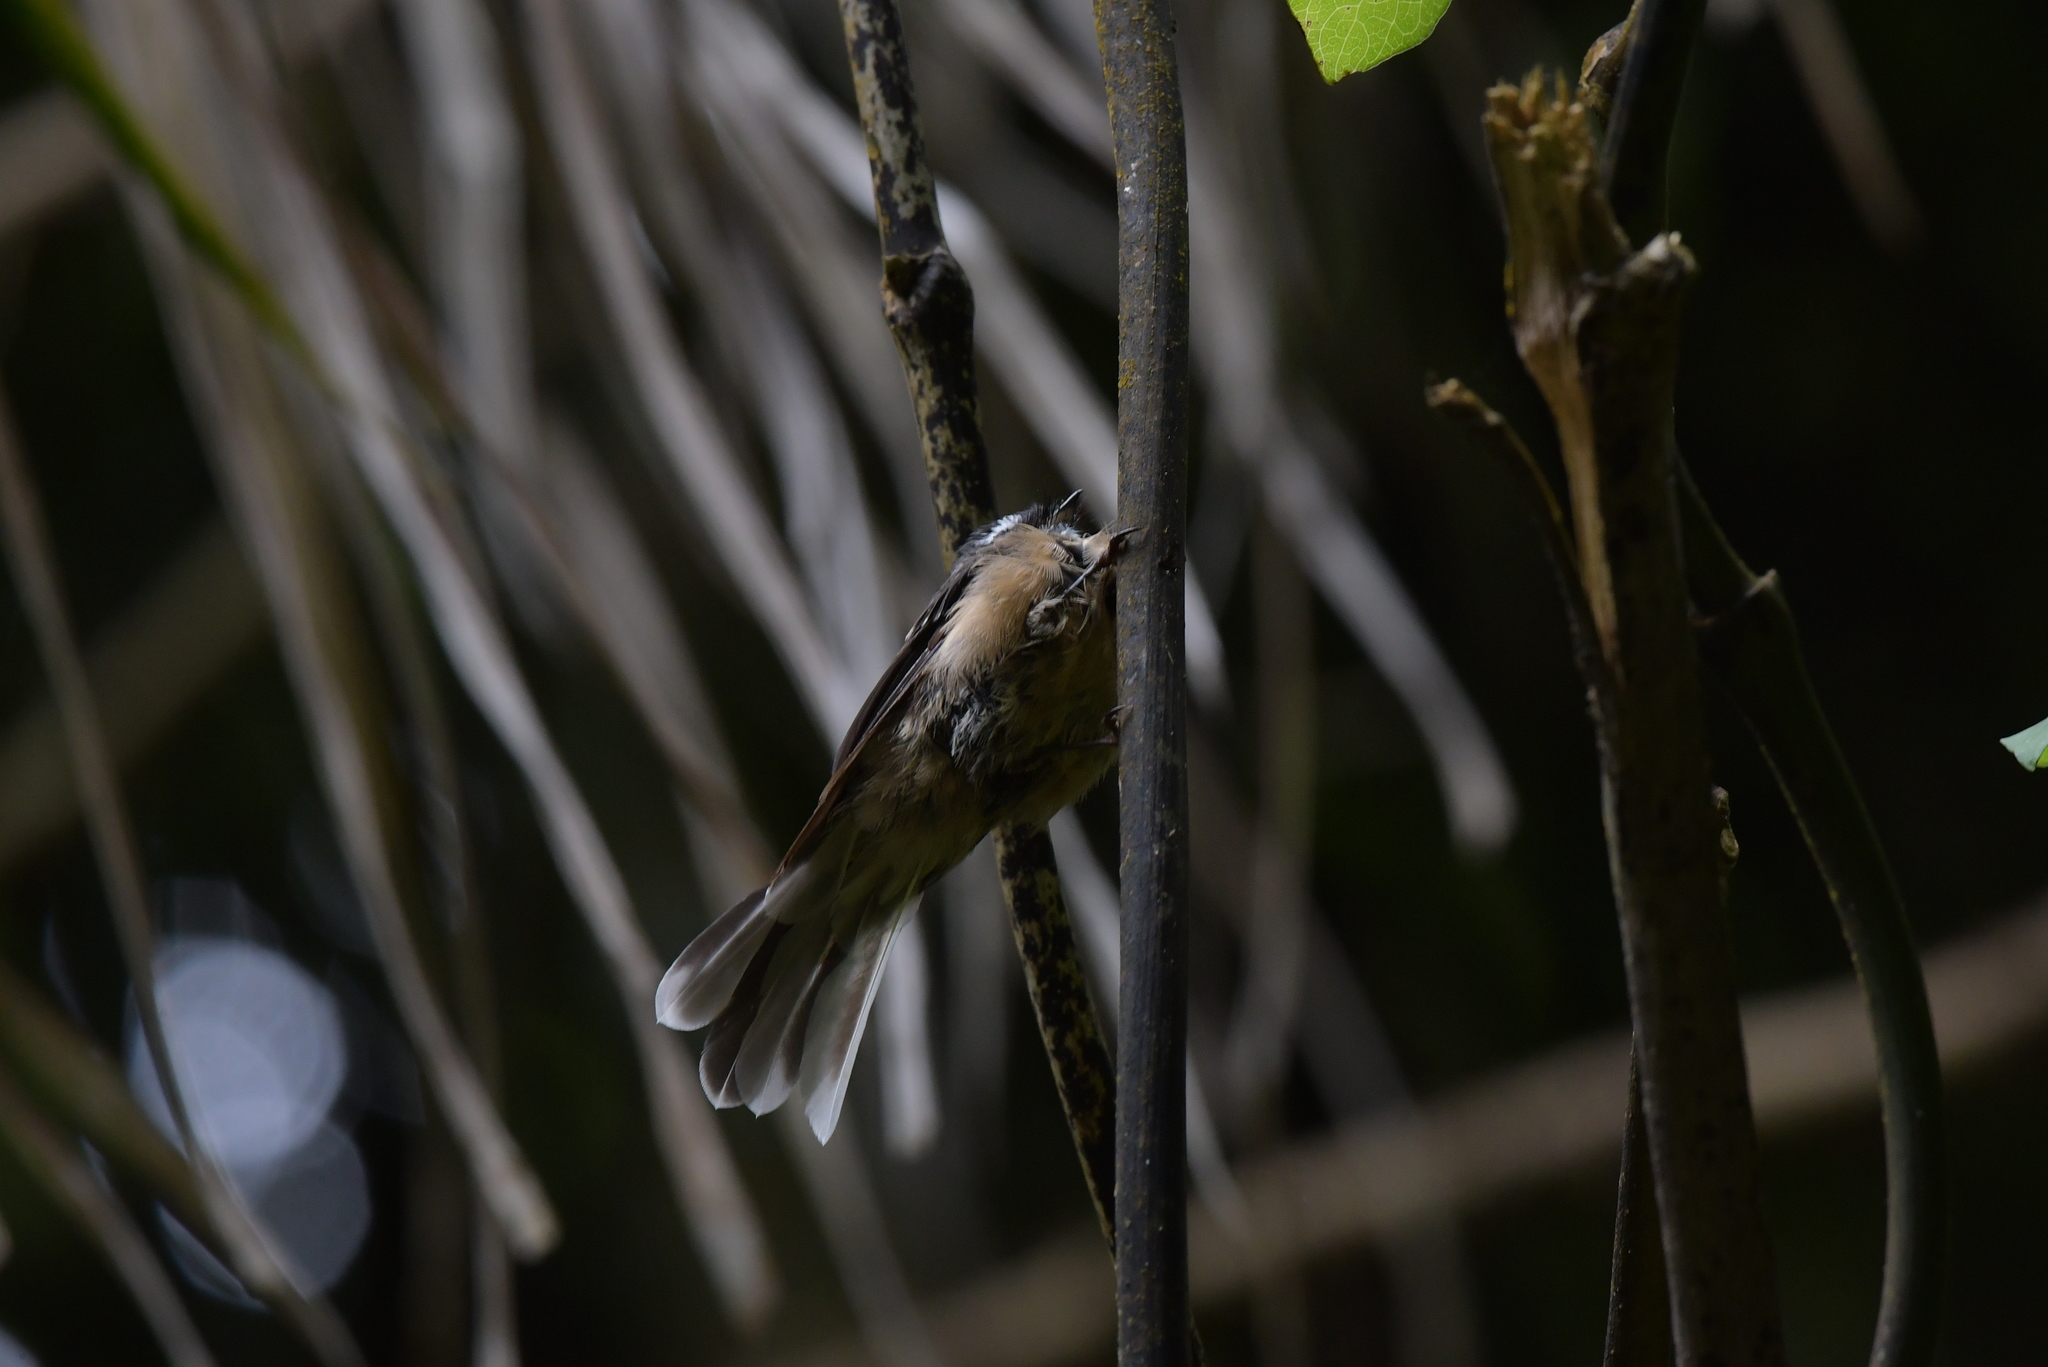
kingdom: Animalia
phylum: Chordata
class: Aves
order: Passeriformes
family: Rhipiduridae
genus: Rhipidura
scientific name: Rhipidura fuliginosa
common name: New zealand fantail
